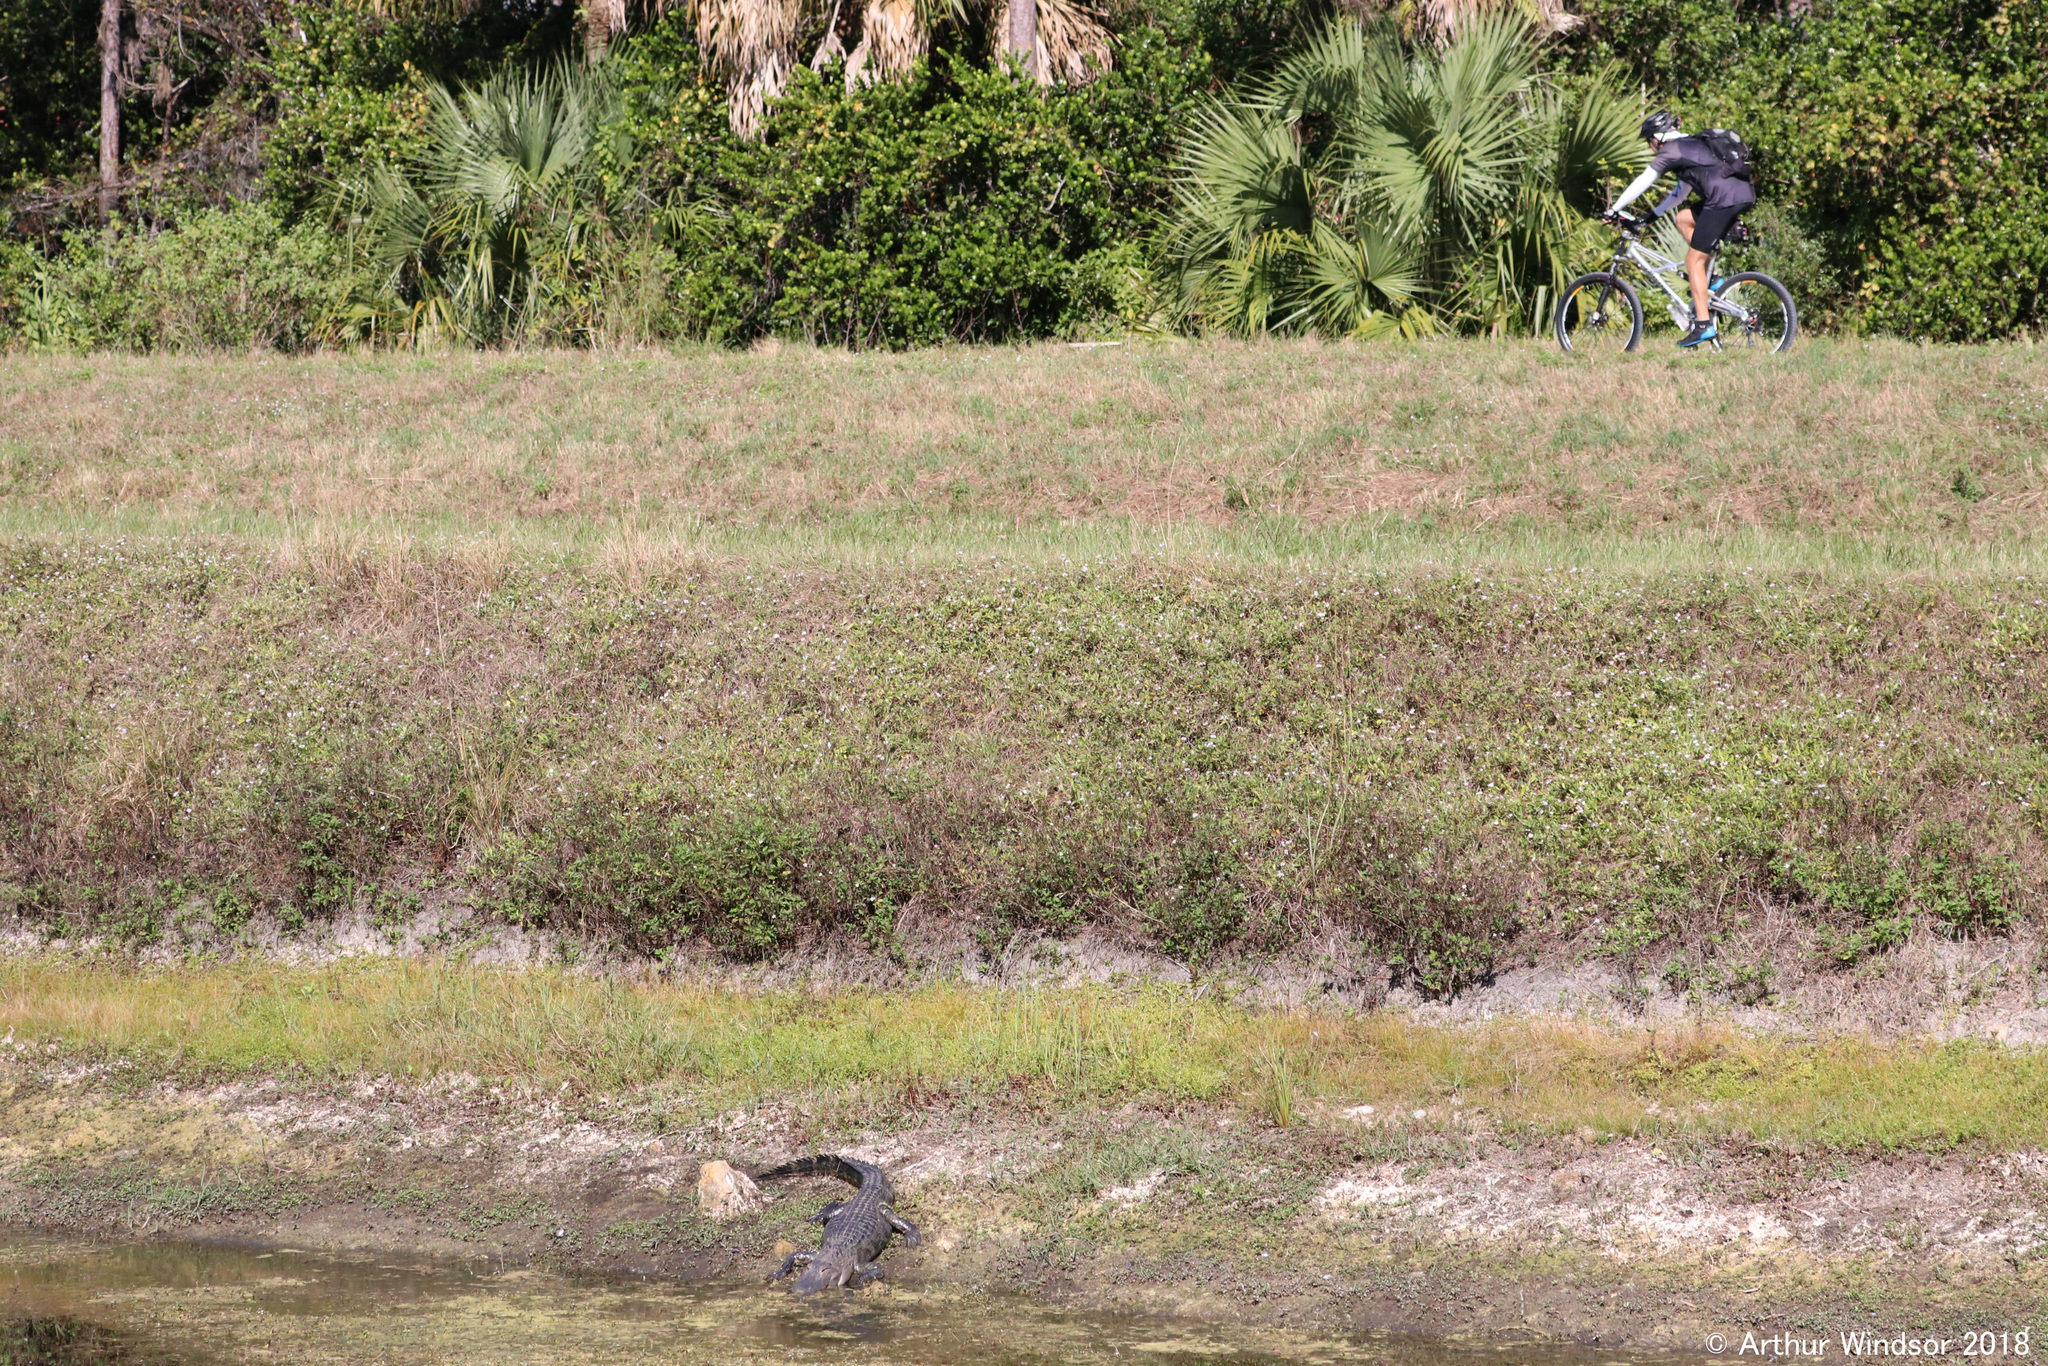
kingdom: Animalia
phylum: Chordata
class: Crocodylia
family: Alligatoridae
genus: Alligator
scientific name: Alligator mississippiensis
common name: American alligator
